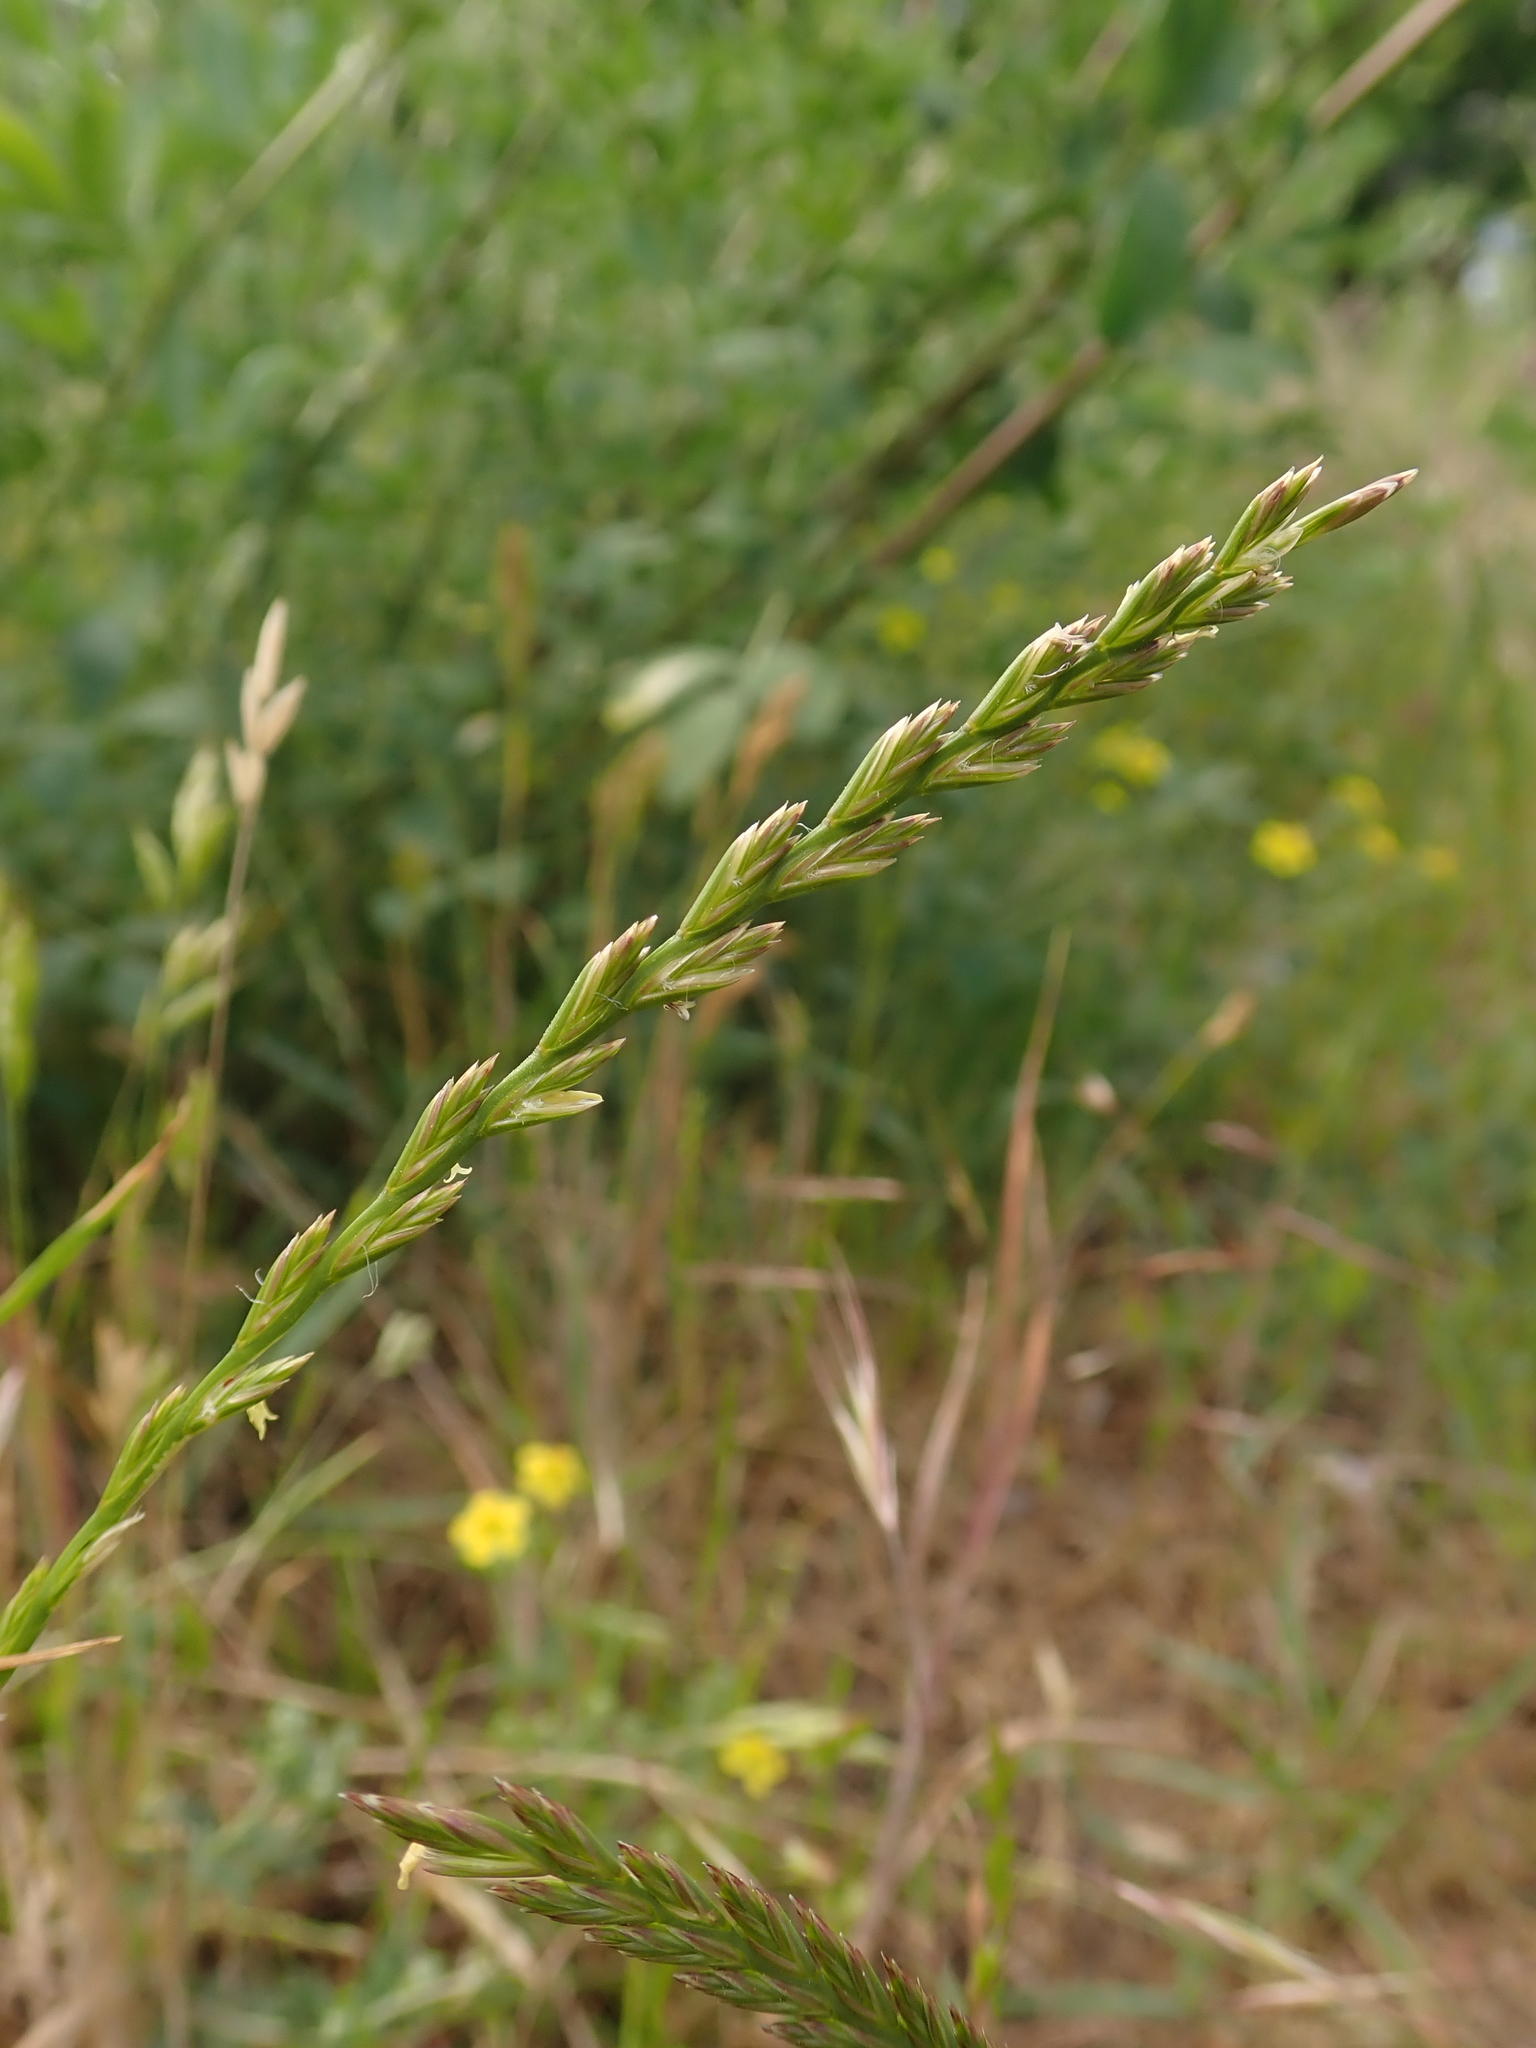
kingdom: Plantae
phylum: Tracheophyta
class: Liliopsida
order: Poales
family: Poaceae
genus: Lolium
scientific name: Lolium perenne
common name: Perennial ryegrass
